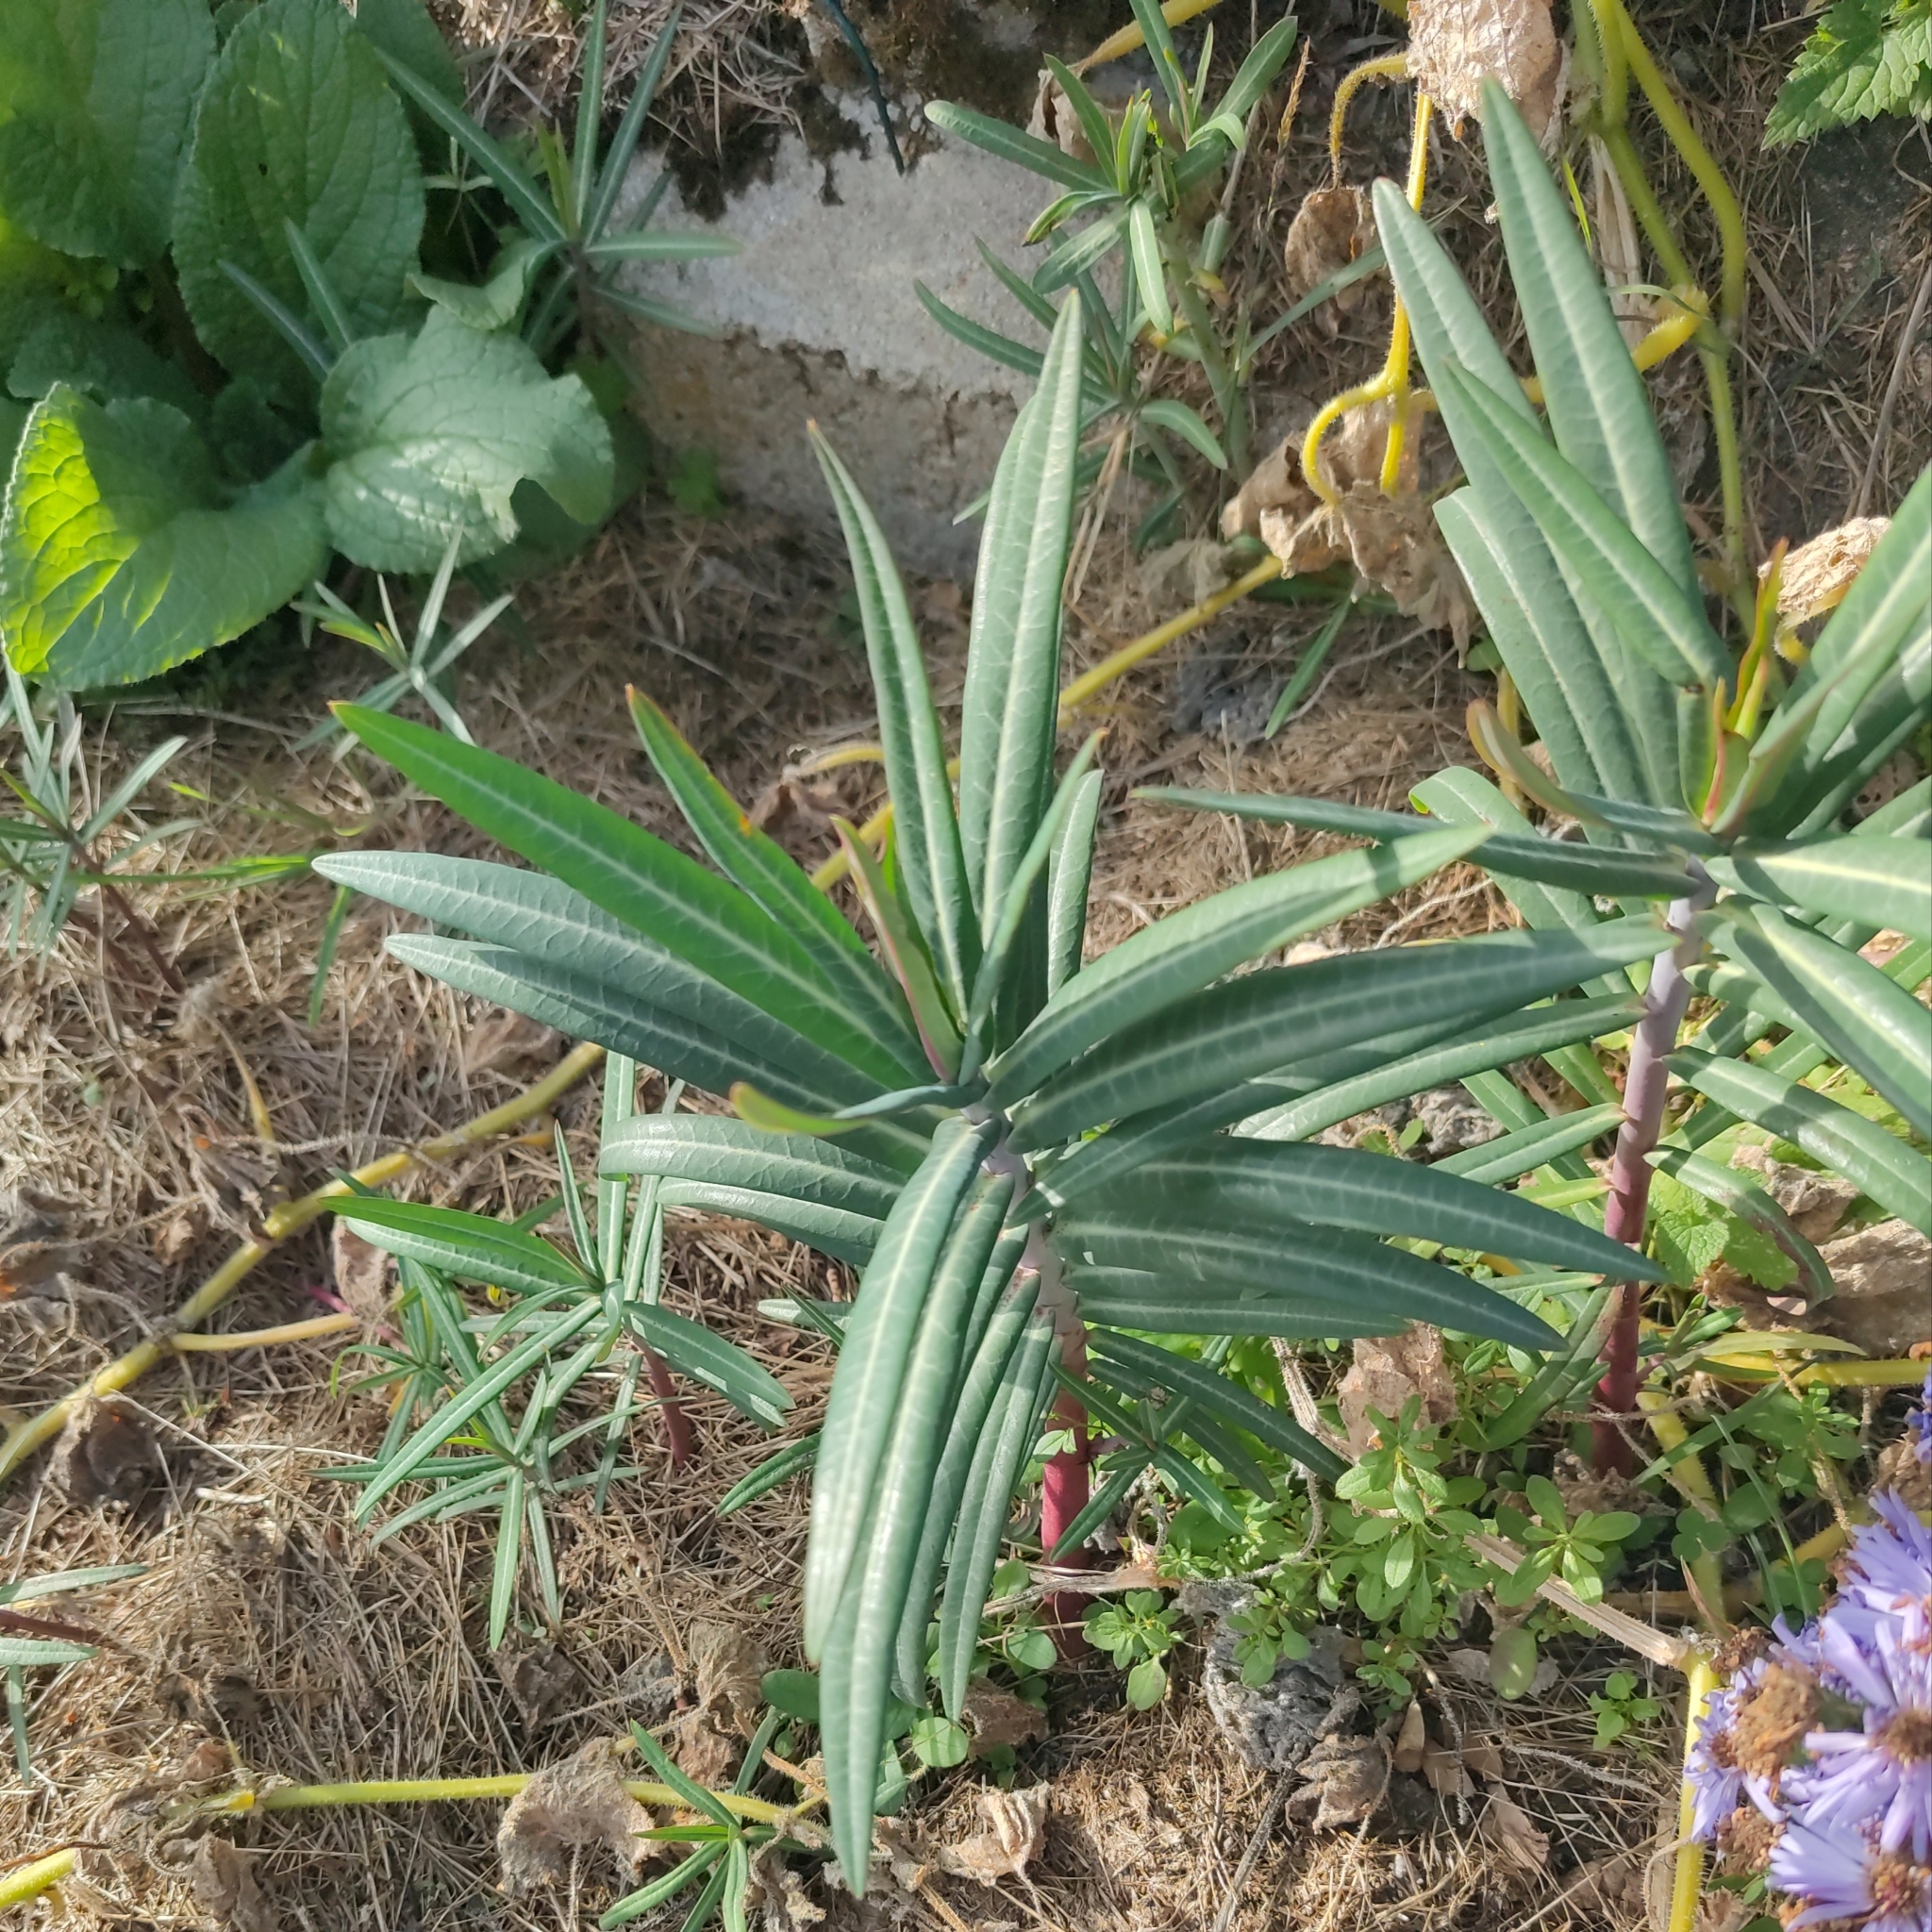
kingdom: Plantae
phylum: Tracheophyta
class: Magnoliopsida
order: Malpighiales
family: Euphorbiaceae
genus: Euphorbia
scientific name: Euphorbia lathyris
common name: Caper spurge
